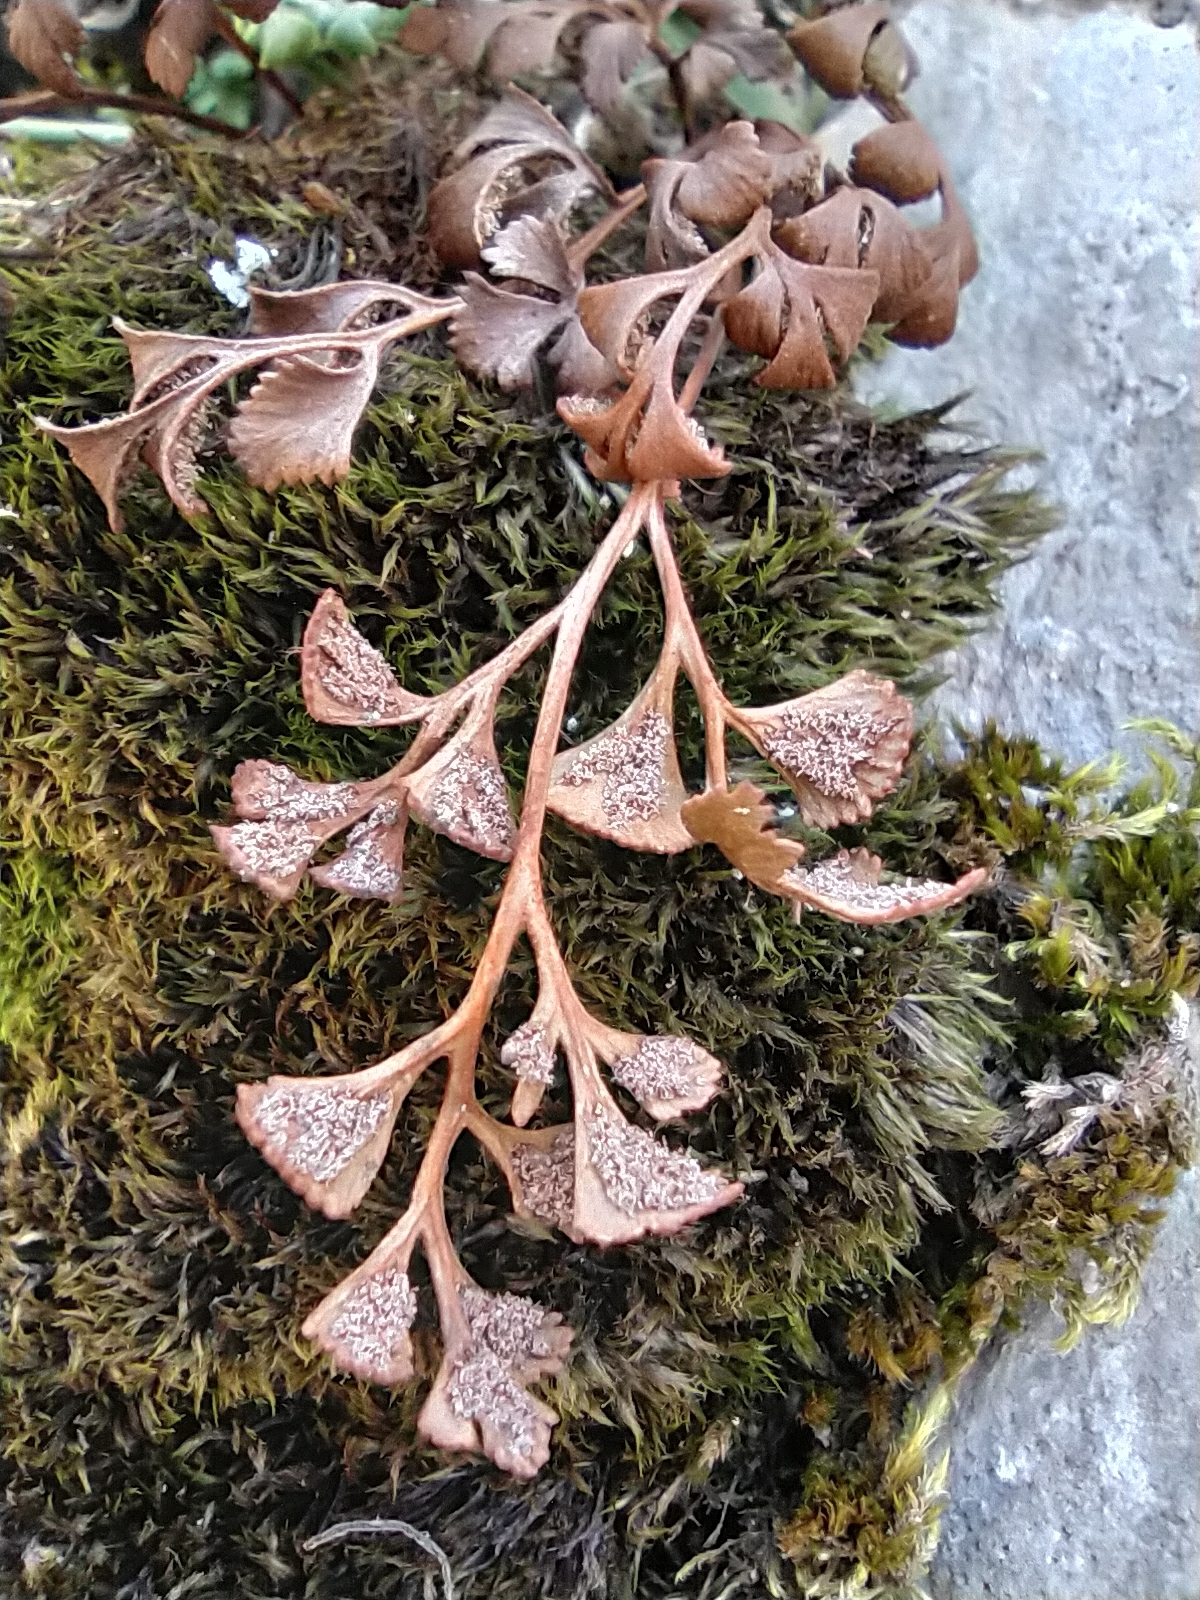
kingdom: Plantae
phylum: Tracheophyta
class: Polypodiopsida
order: Polypodiales
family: Aspleniaceae
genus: Asplenium
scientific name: Asplenium ruta-muraria
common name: Wall-rue
